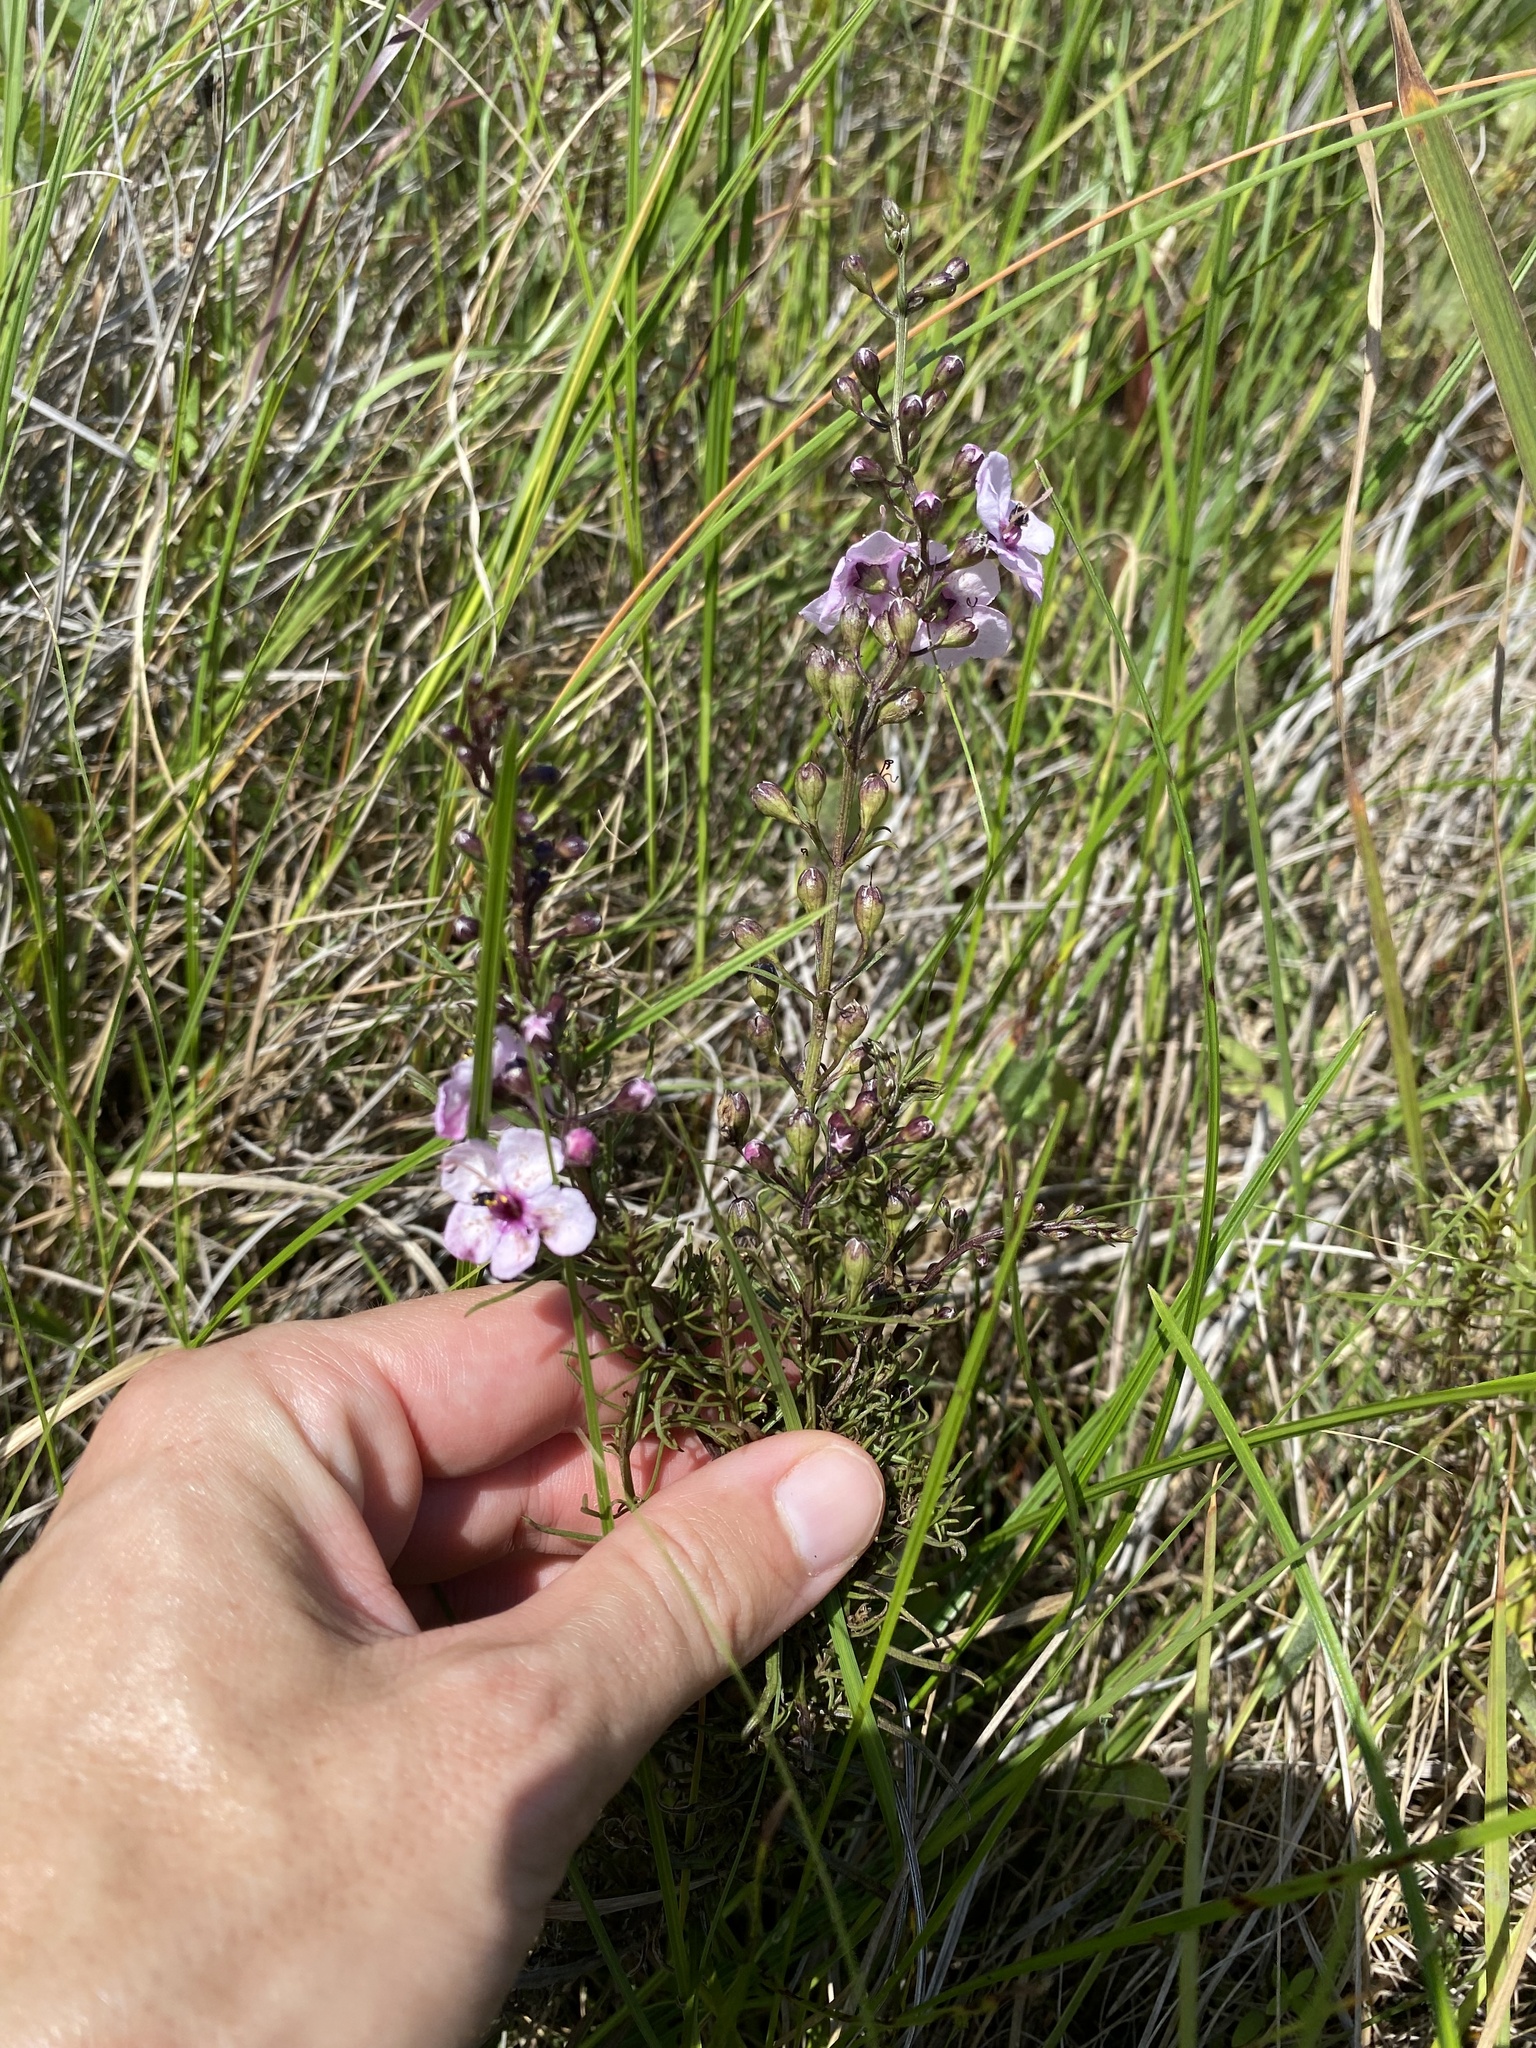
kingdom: Plantae
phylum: Tracheophyta
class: Magnoliopsida
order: Lamiales
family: Orobanchaceae
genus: Sopubia
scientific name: Sopubia simplex
